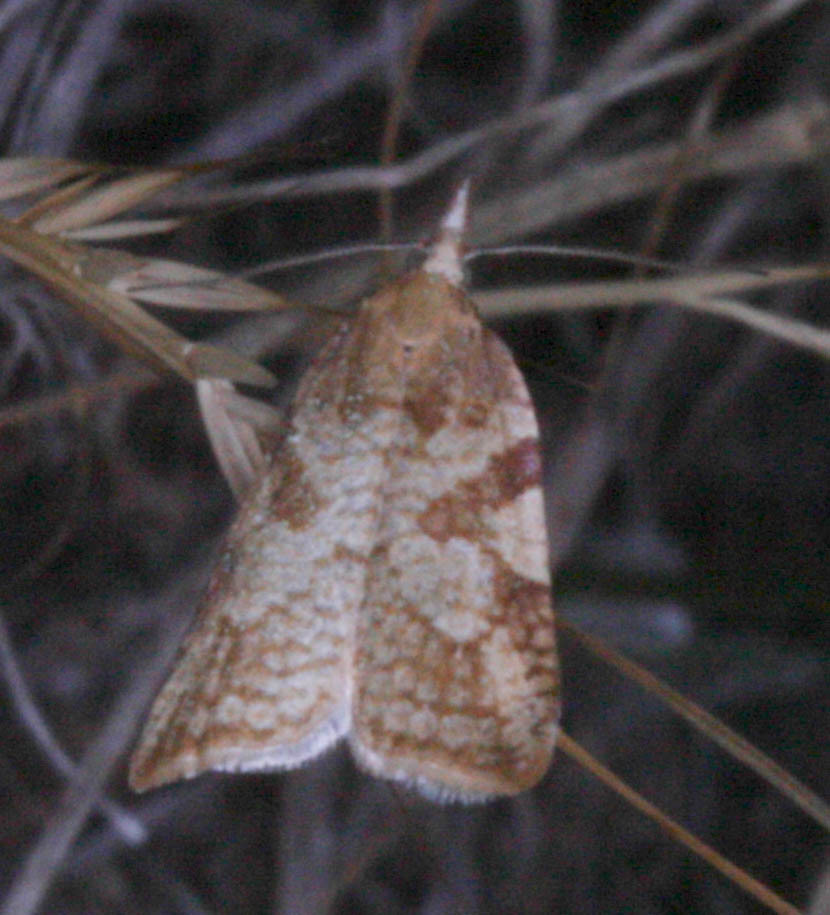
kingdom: Animalia
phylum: Arthropoda
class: Insecta
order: Lepidoptera
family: Tortricidae
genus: Sparganothis
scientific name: Sparganothis senecionana
